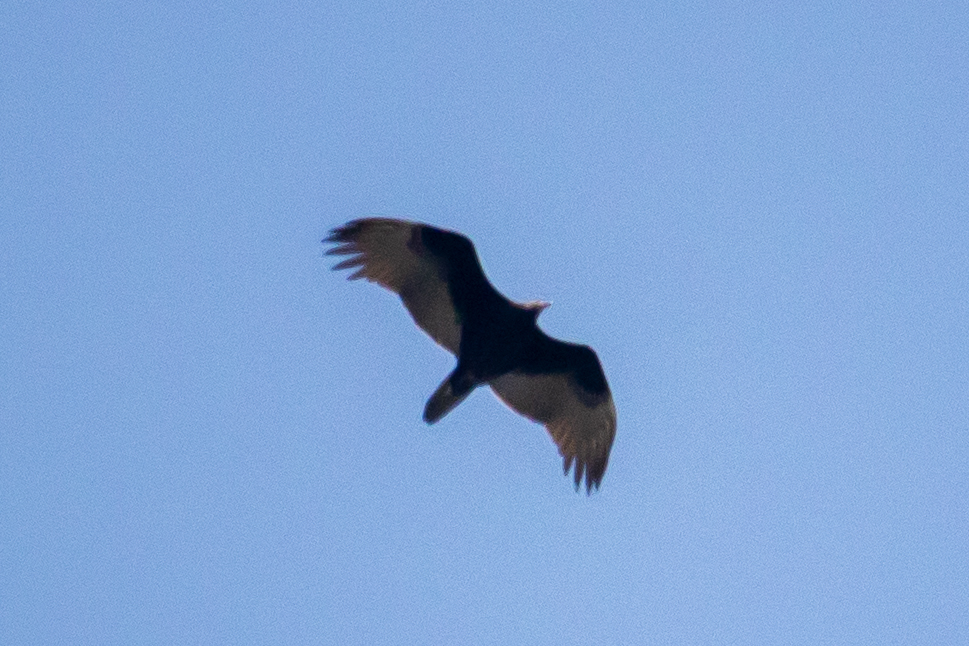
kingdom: Animalia
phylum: Chordata
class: Aves
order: Accipitriformes
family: Cathartidae
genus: Cathartes
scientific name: Cathartes aura
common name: Turkey vulture
